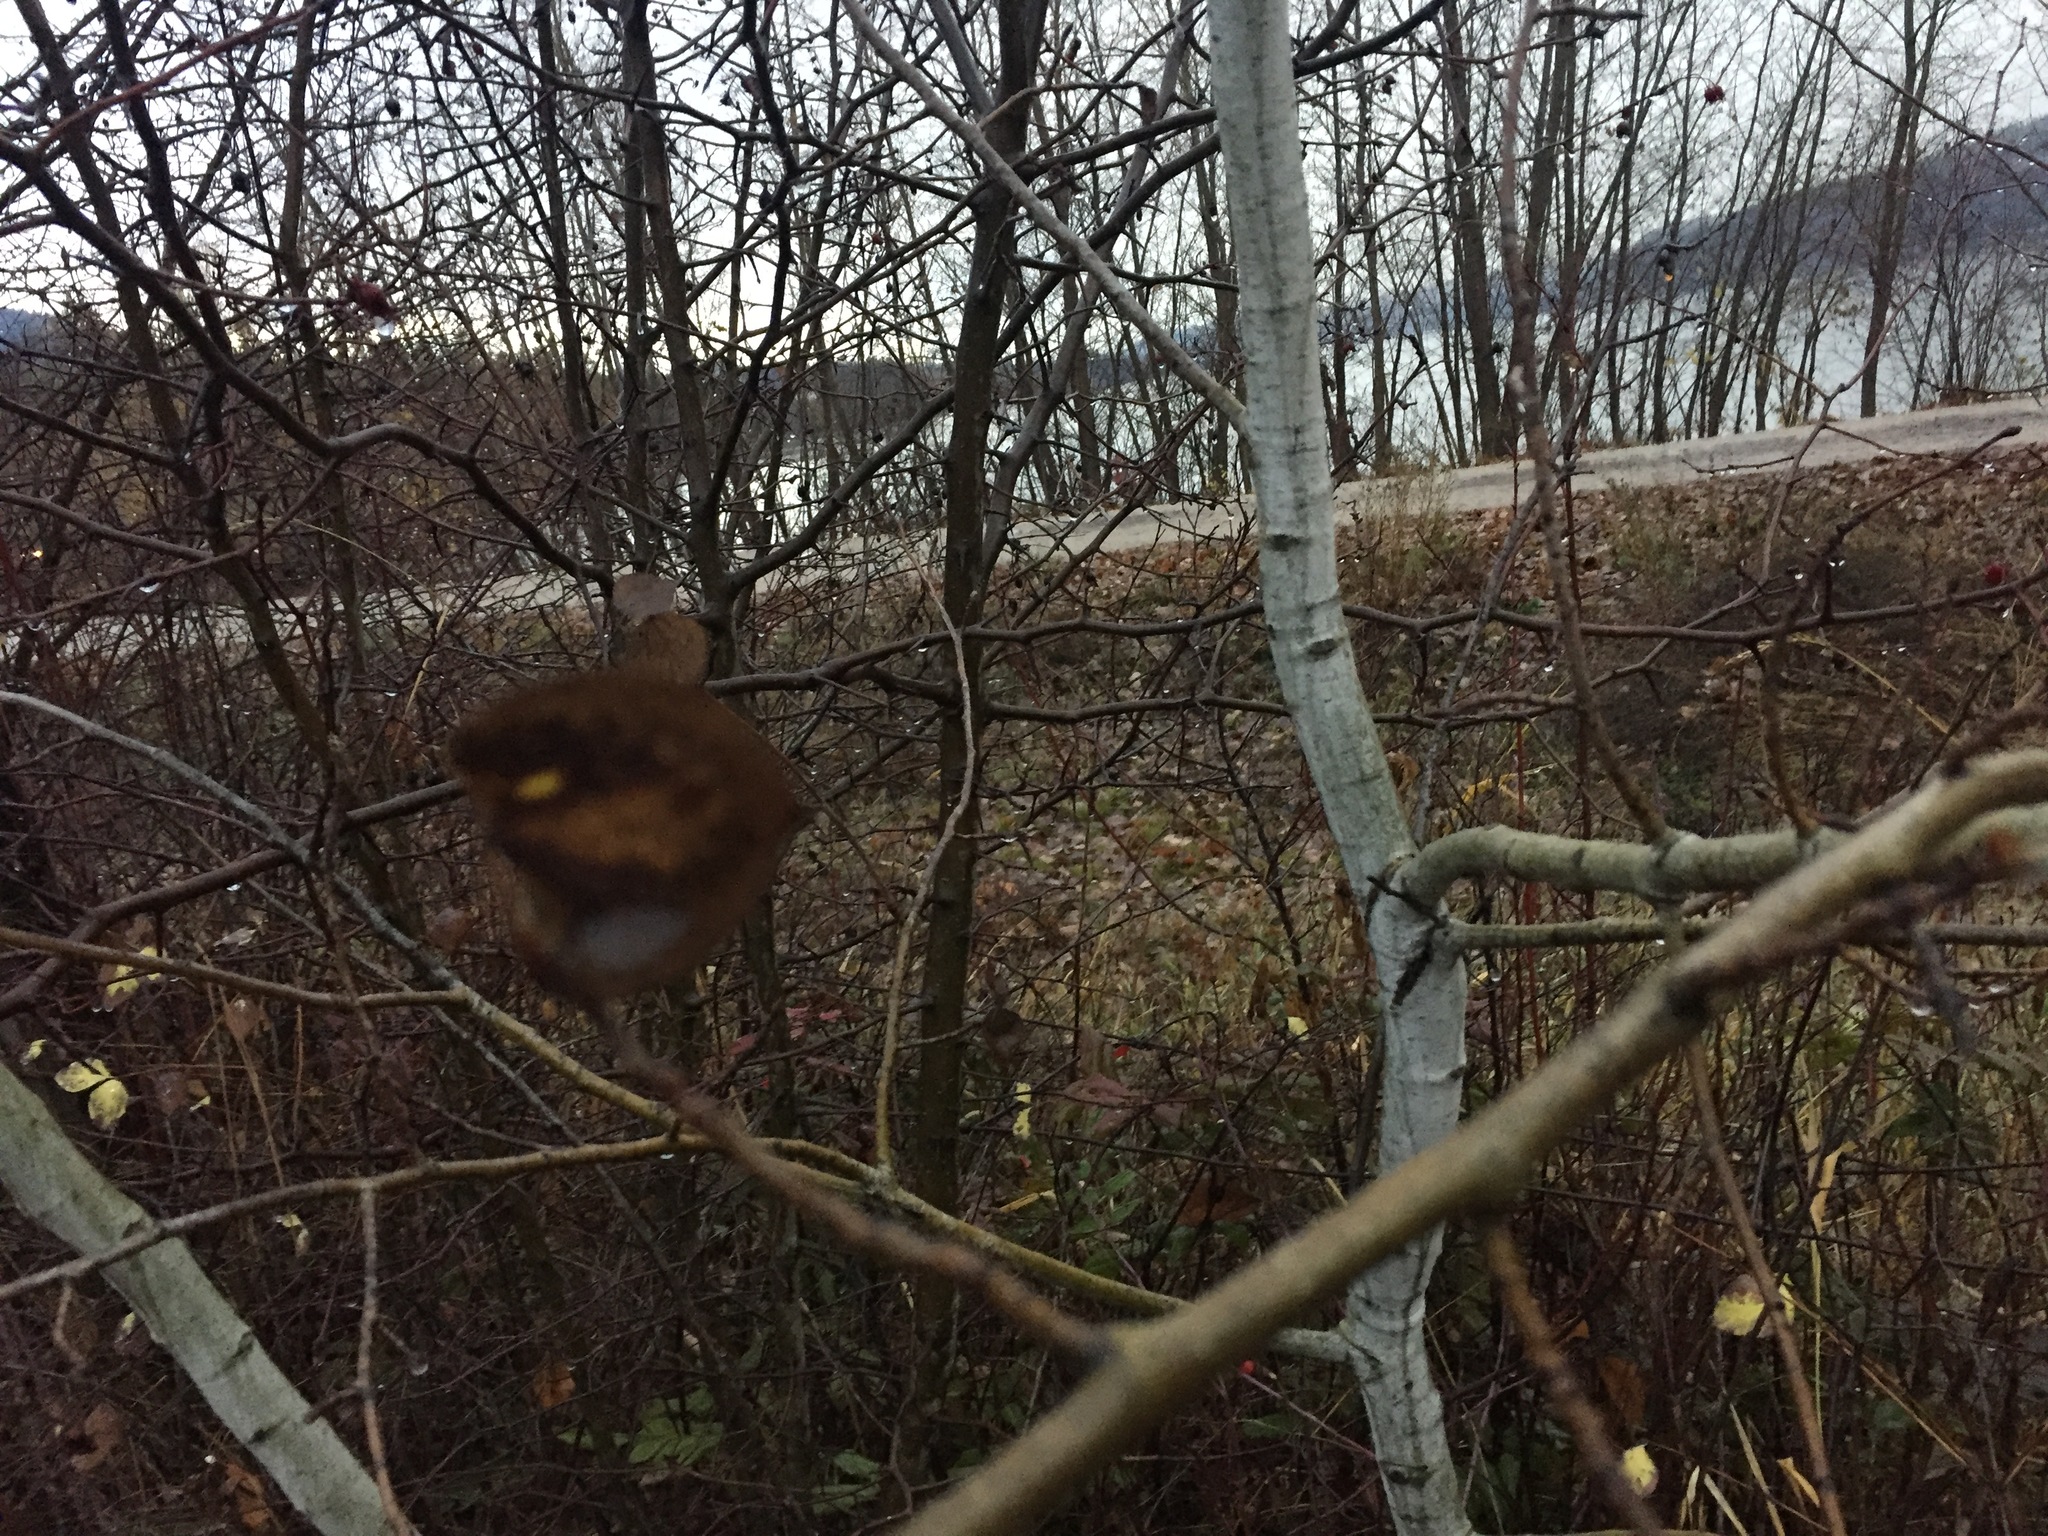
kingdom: Plantae
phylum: Tracheophyta
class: Magnoliopsida
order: Malpighiales
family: Salicaceae
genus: Populus
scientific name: Populus tremuloides
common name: Quaking aspen
